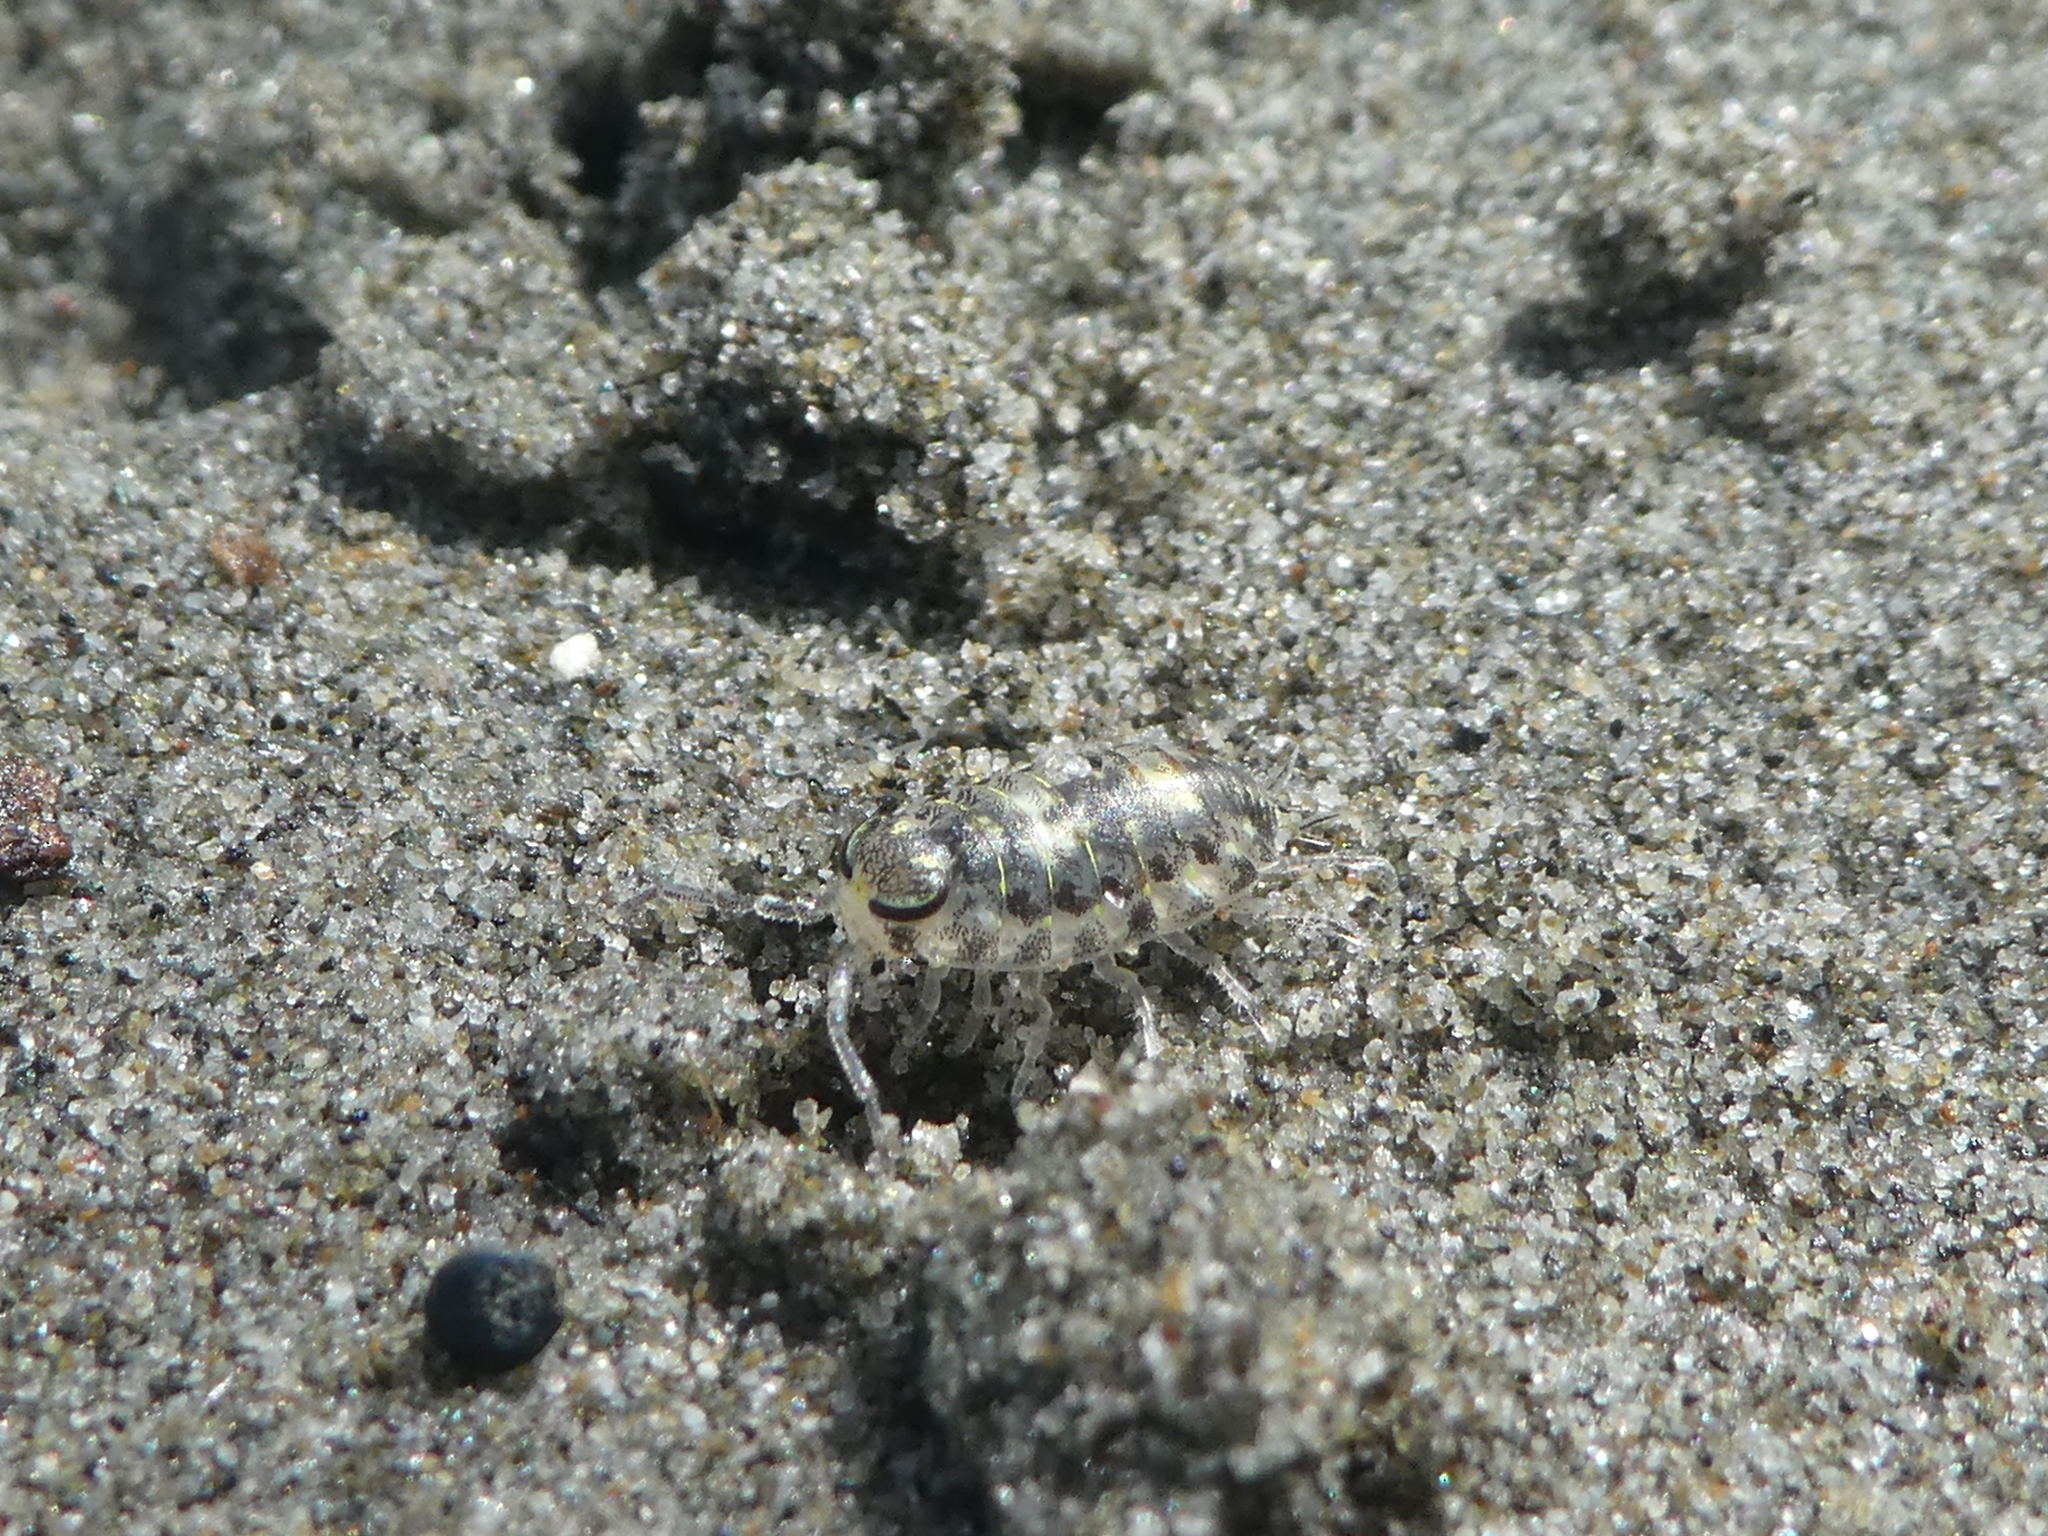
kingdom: Animalia
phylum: Arthropoda
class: Malacostraca
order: Isopoda
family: Scyphacidae
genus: Scyphax
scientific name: Scyphax ornatus
